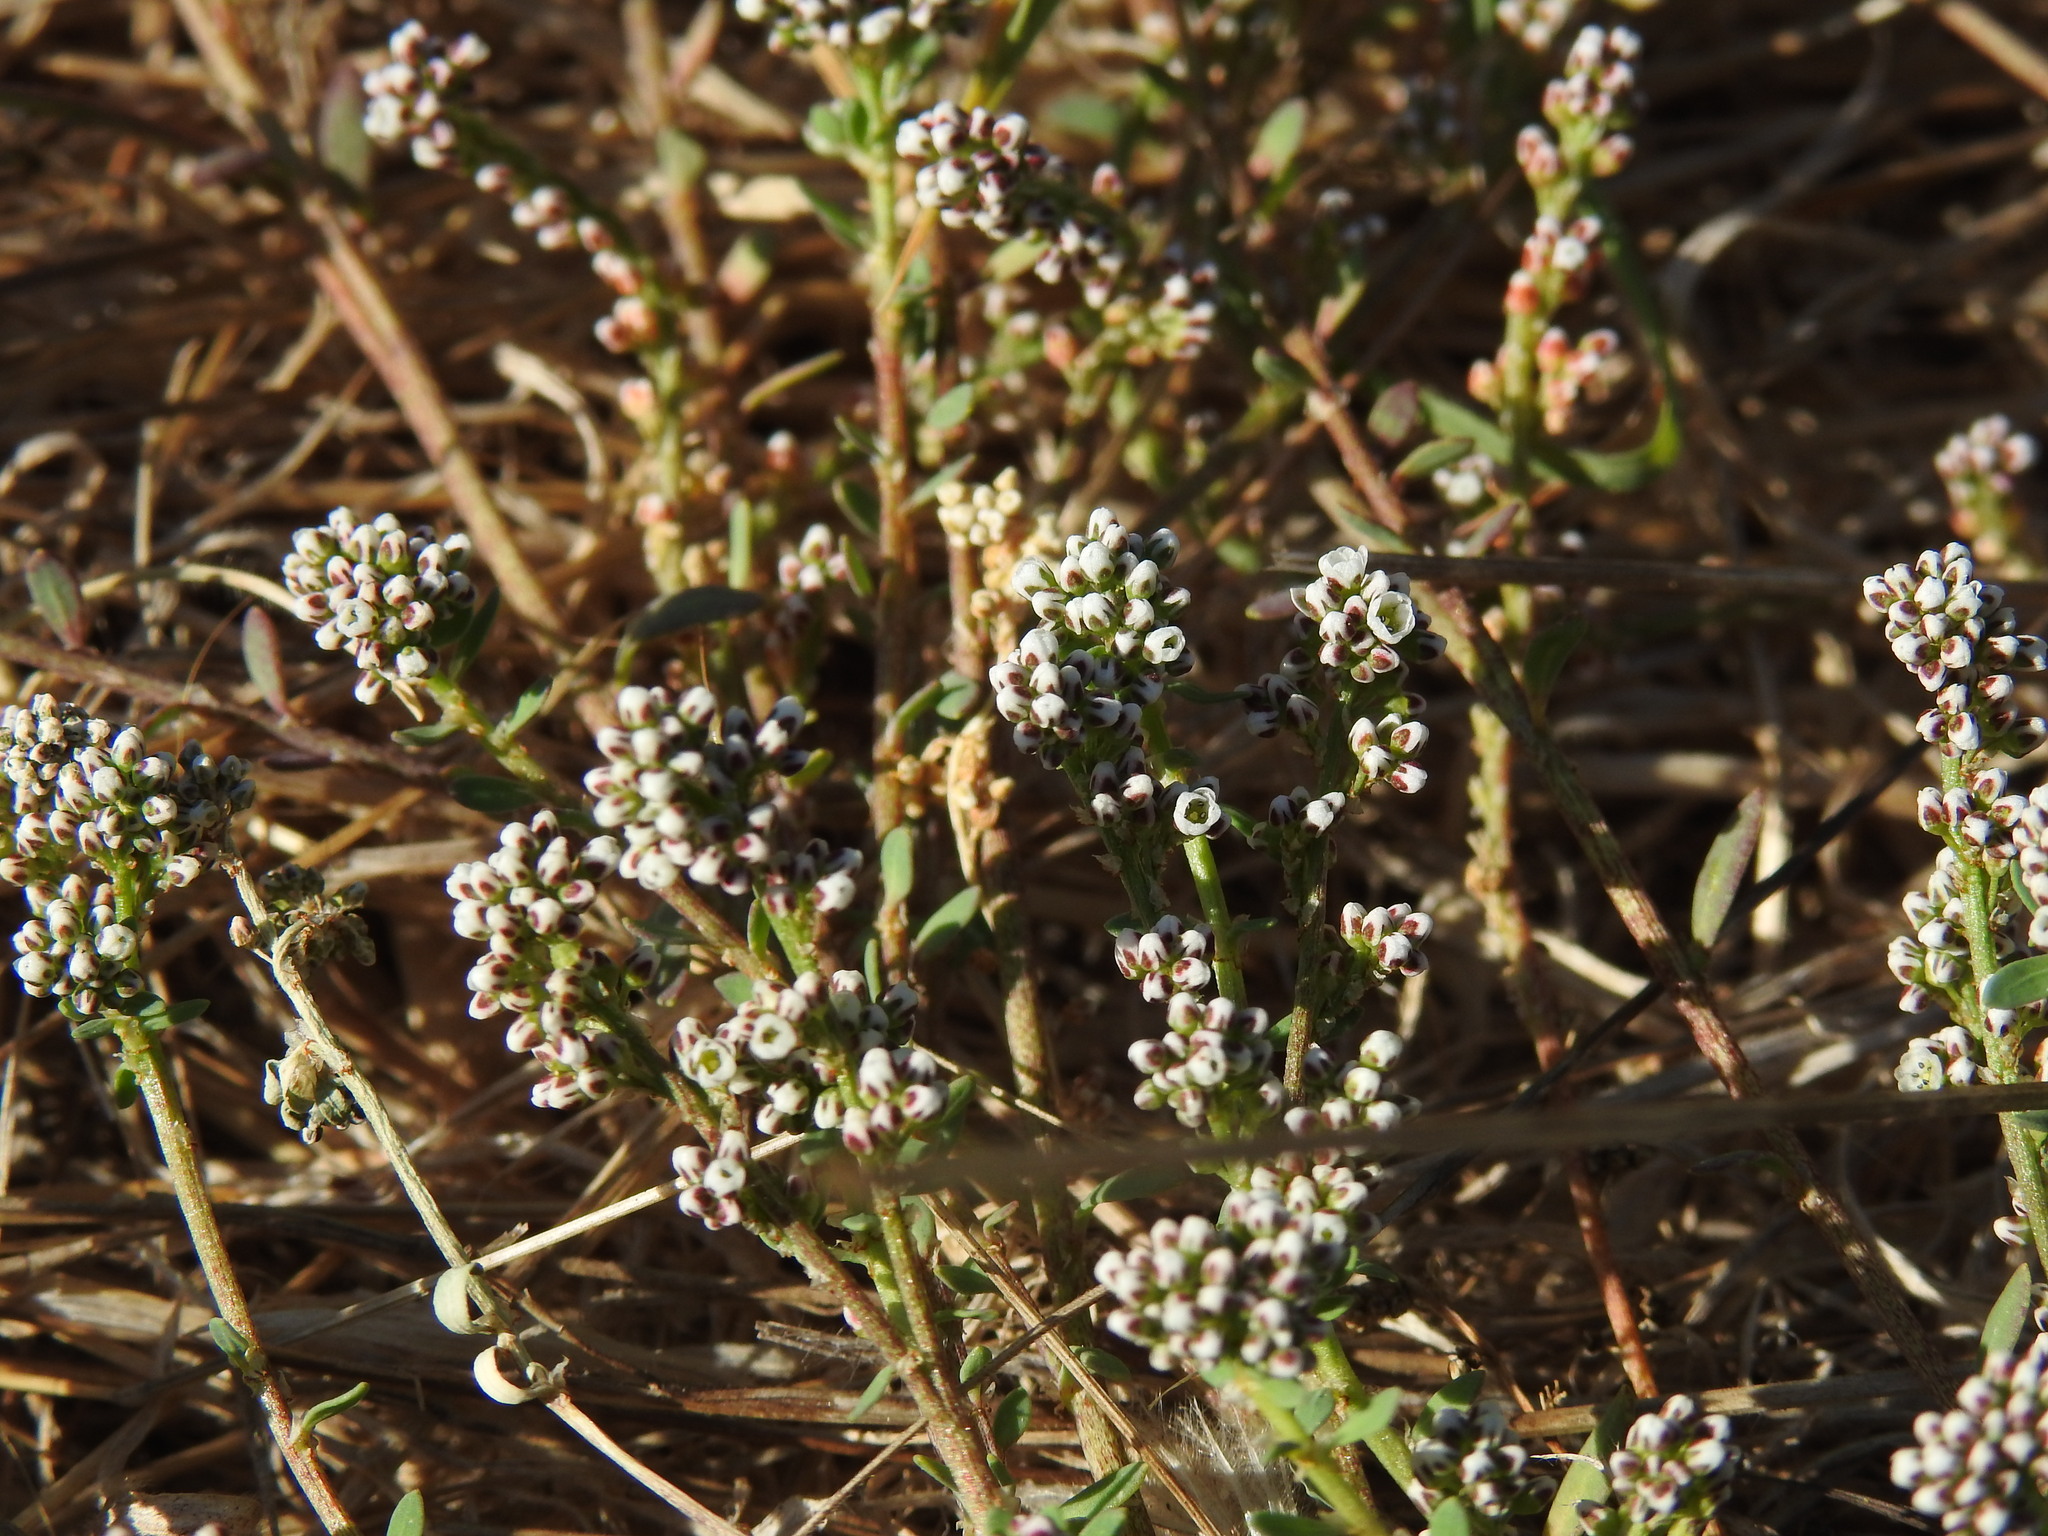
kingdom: Plantae
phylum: Tracheophyta
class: Magnoliopsida
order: Caryophyllales
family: Caryophyllaceae
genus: Corrigiola
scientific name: Corrigiola litoralis
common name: Strapwort
